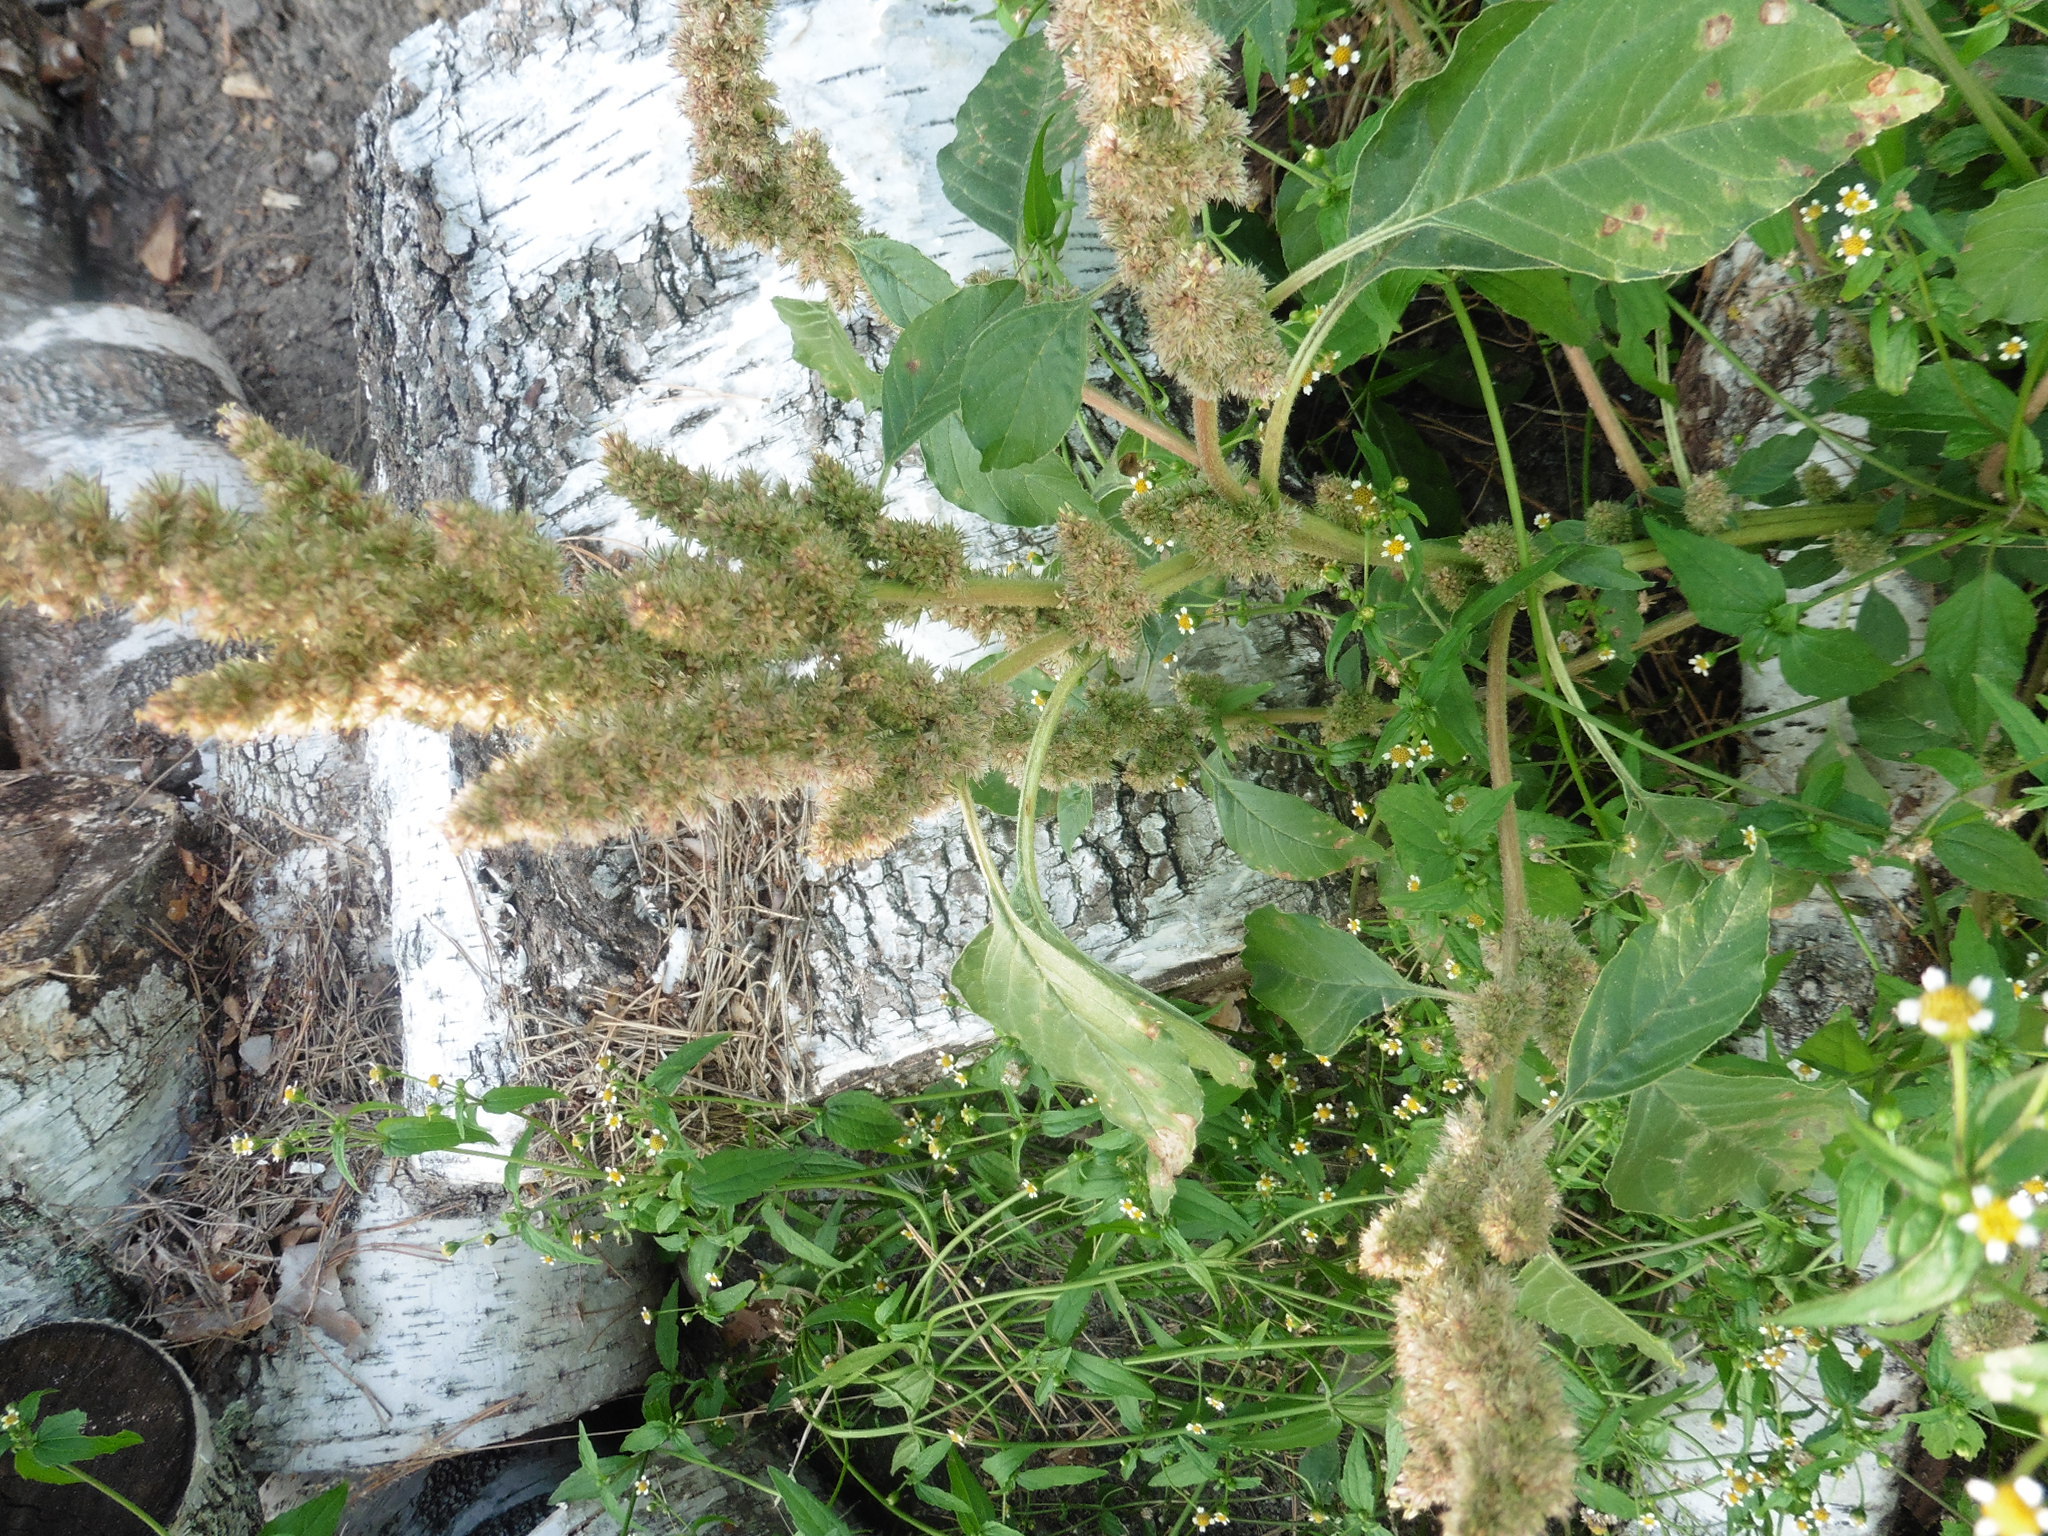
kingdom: Plantae
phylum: Tracheophyta
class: Magnoliopsida
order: Caryophyllales
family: Amaranthaceae
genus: Amaranthus
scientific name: Amaranthus retroflexus
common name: Redroot amaranth
